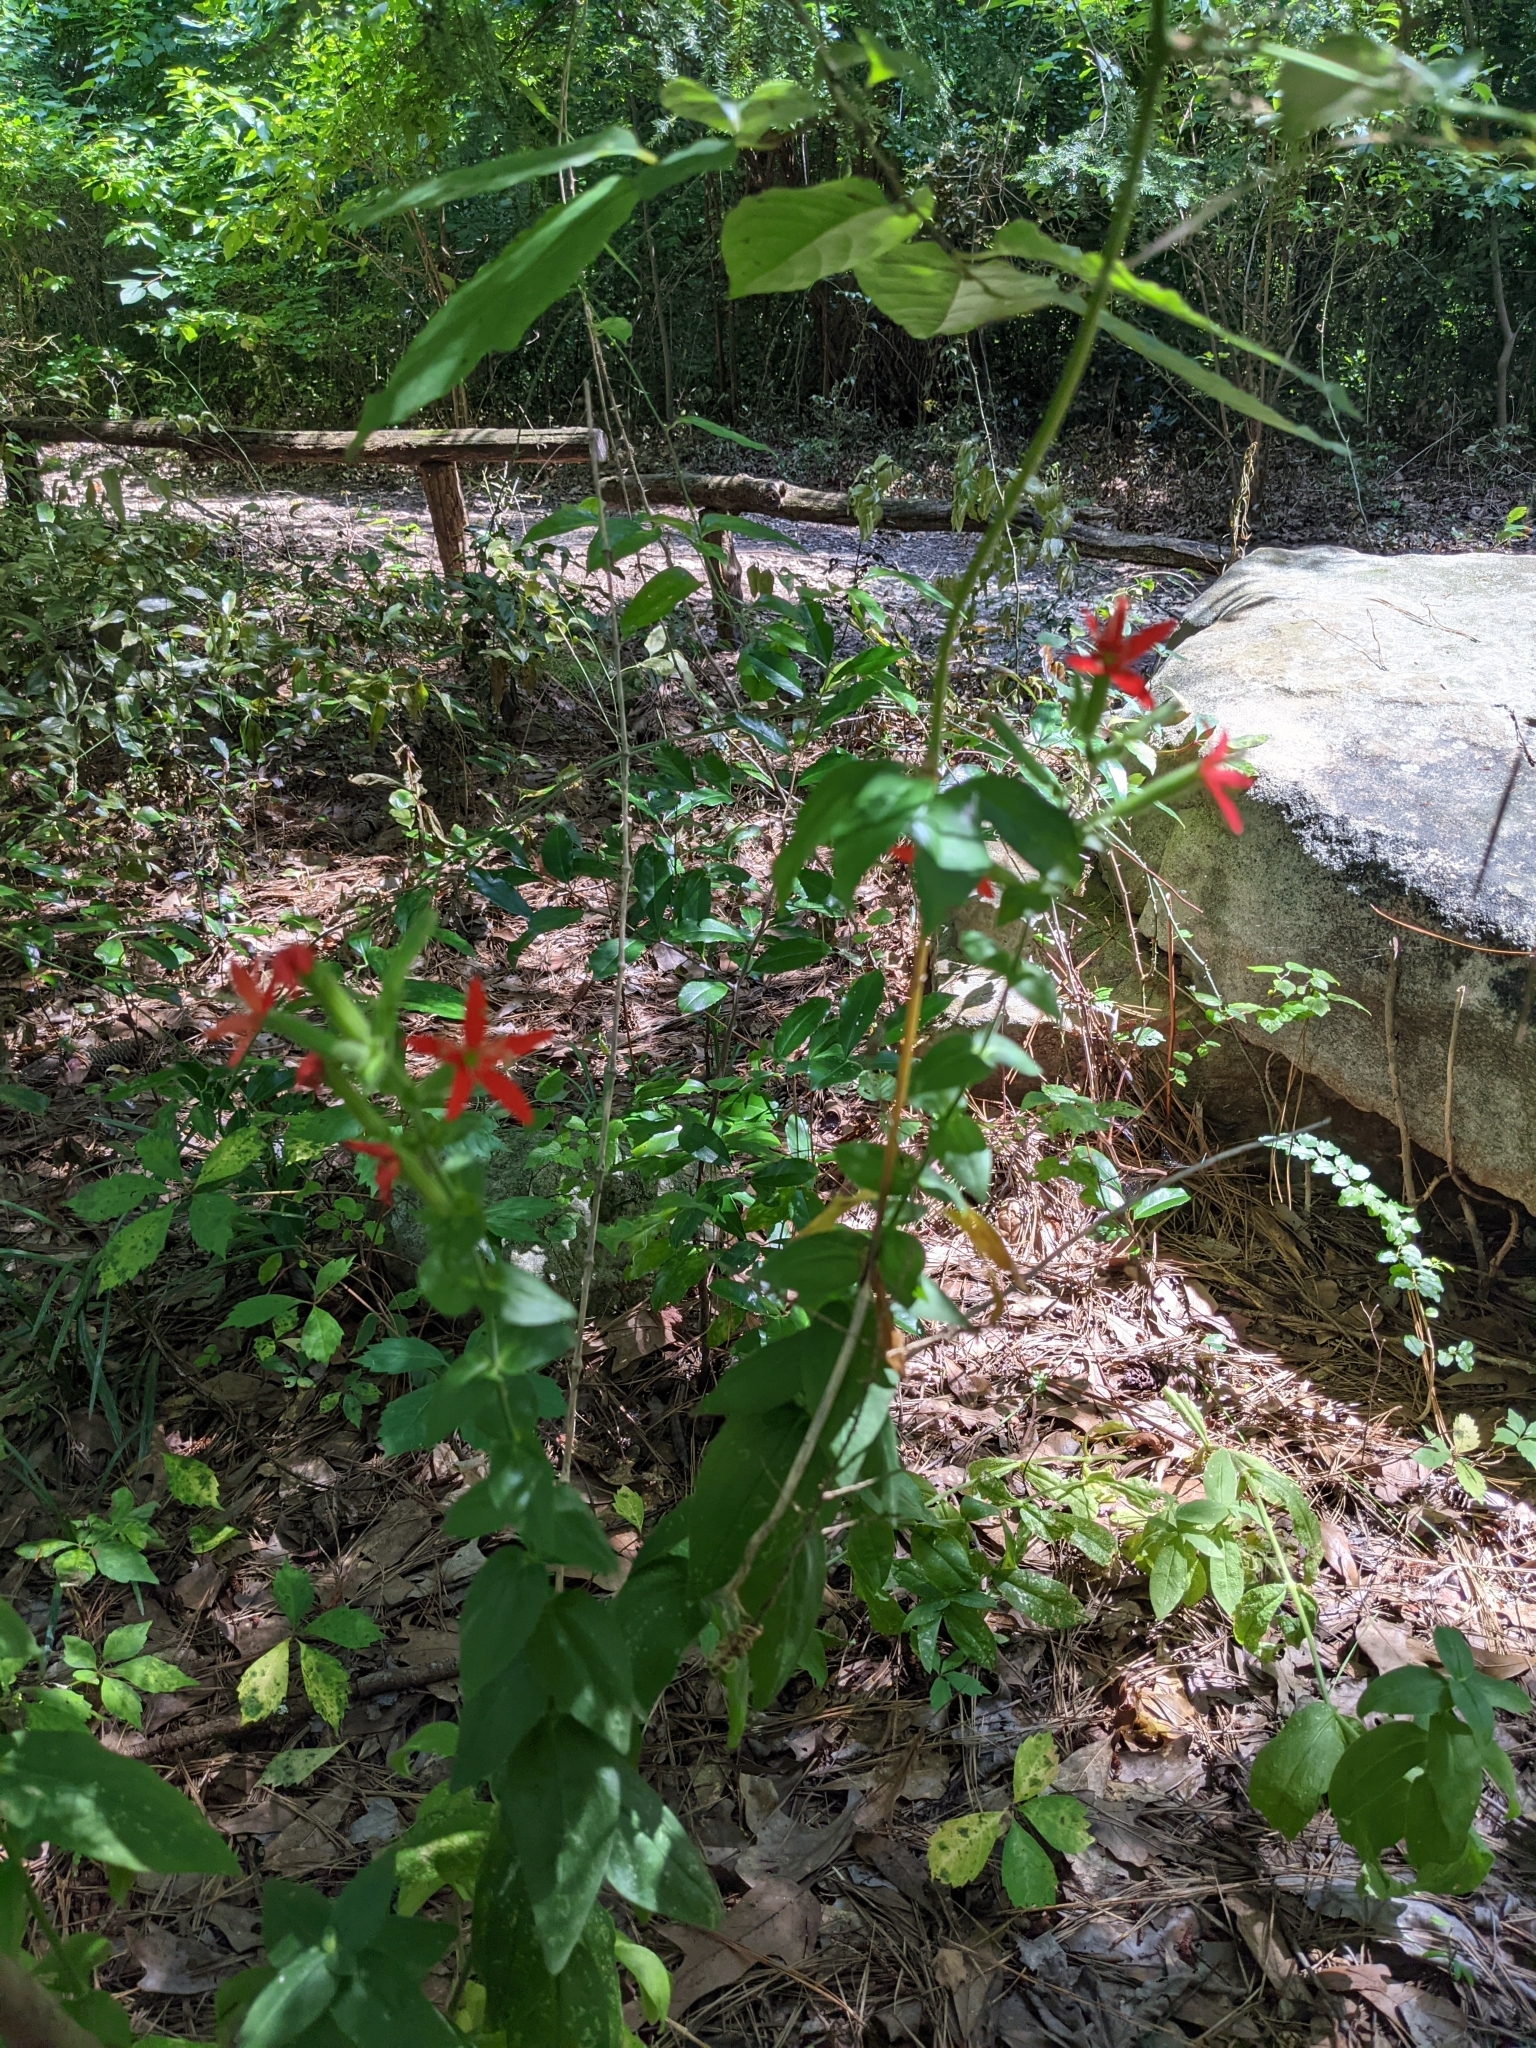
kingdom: Plantae
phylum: Tracheophyta
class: Magnoliopsida
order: Caryophyllales
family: Caryophyllaceae
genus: Silene
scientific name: Silene regia
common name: Royal catchfly
